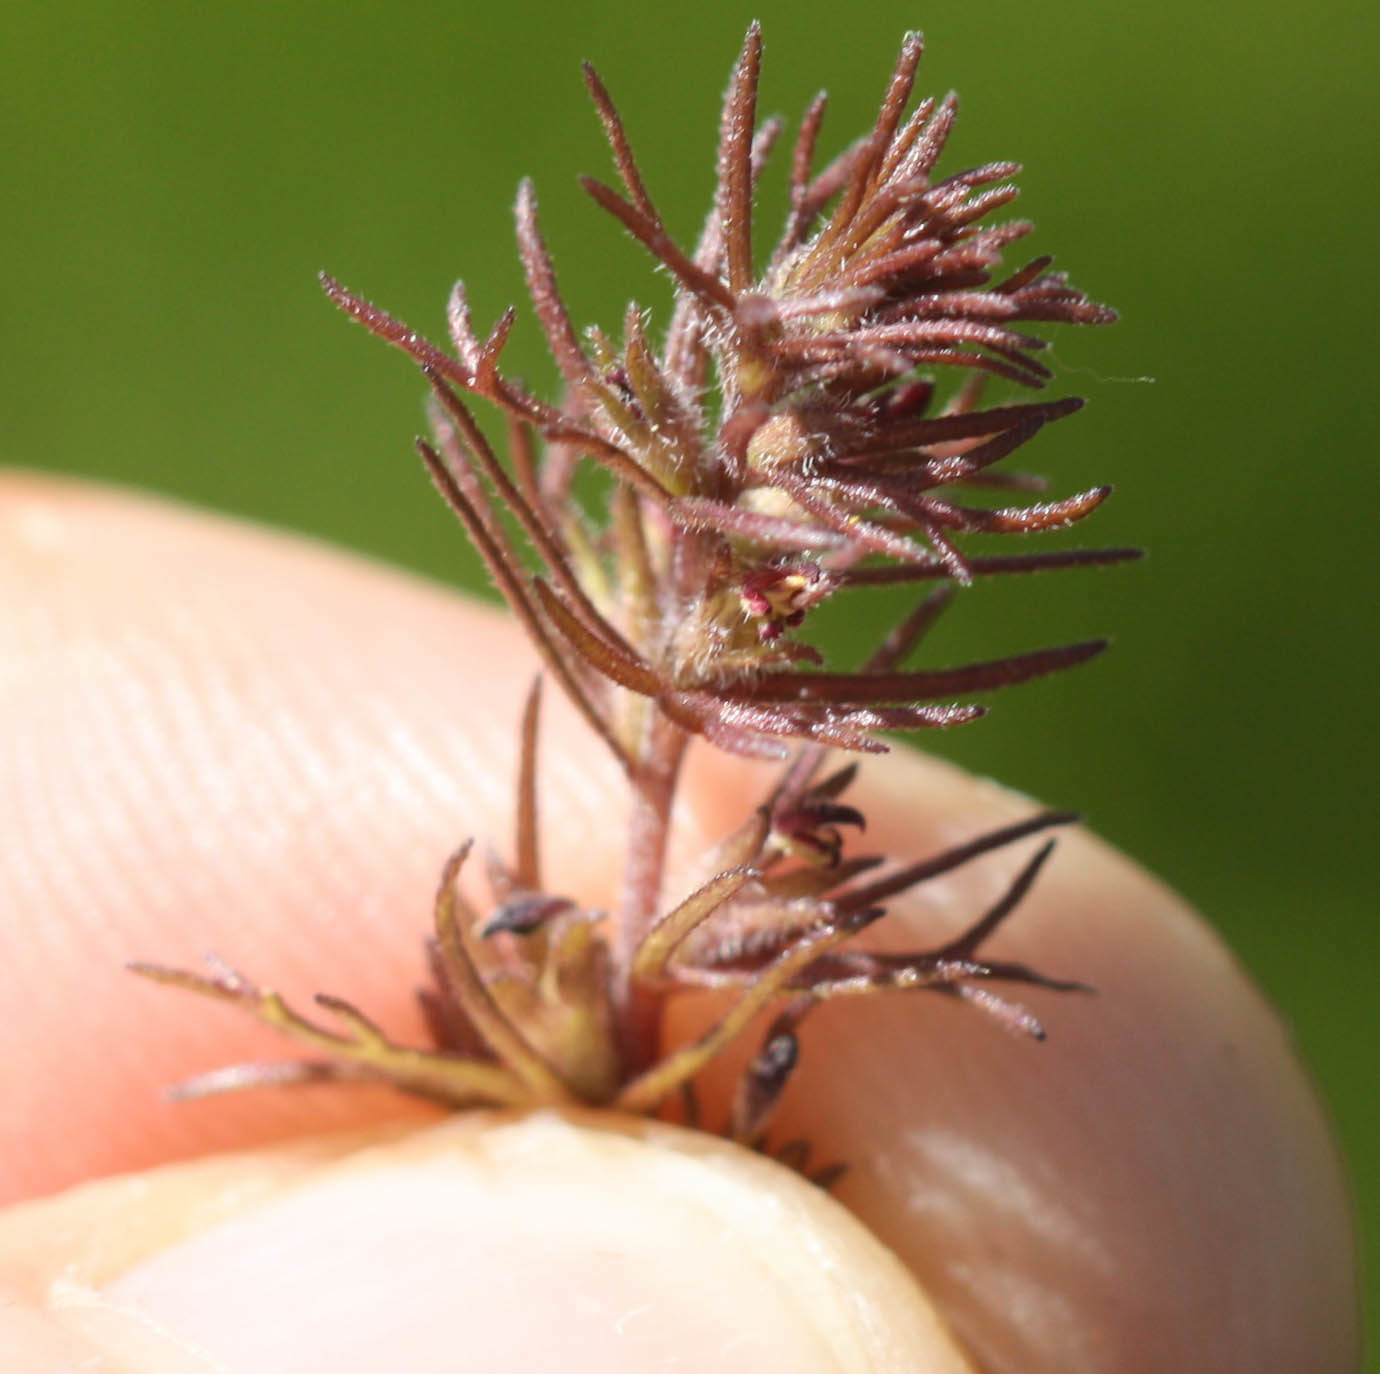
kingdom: Plantae
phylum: Tracheophyta
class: Magnoliopsida
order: Lamiales
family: Orobanchaceae
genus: Triphysaria
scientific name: Triphysaria pusilla
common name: Dwarf false owl-clover
